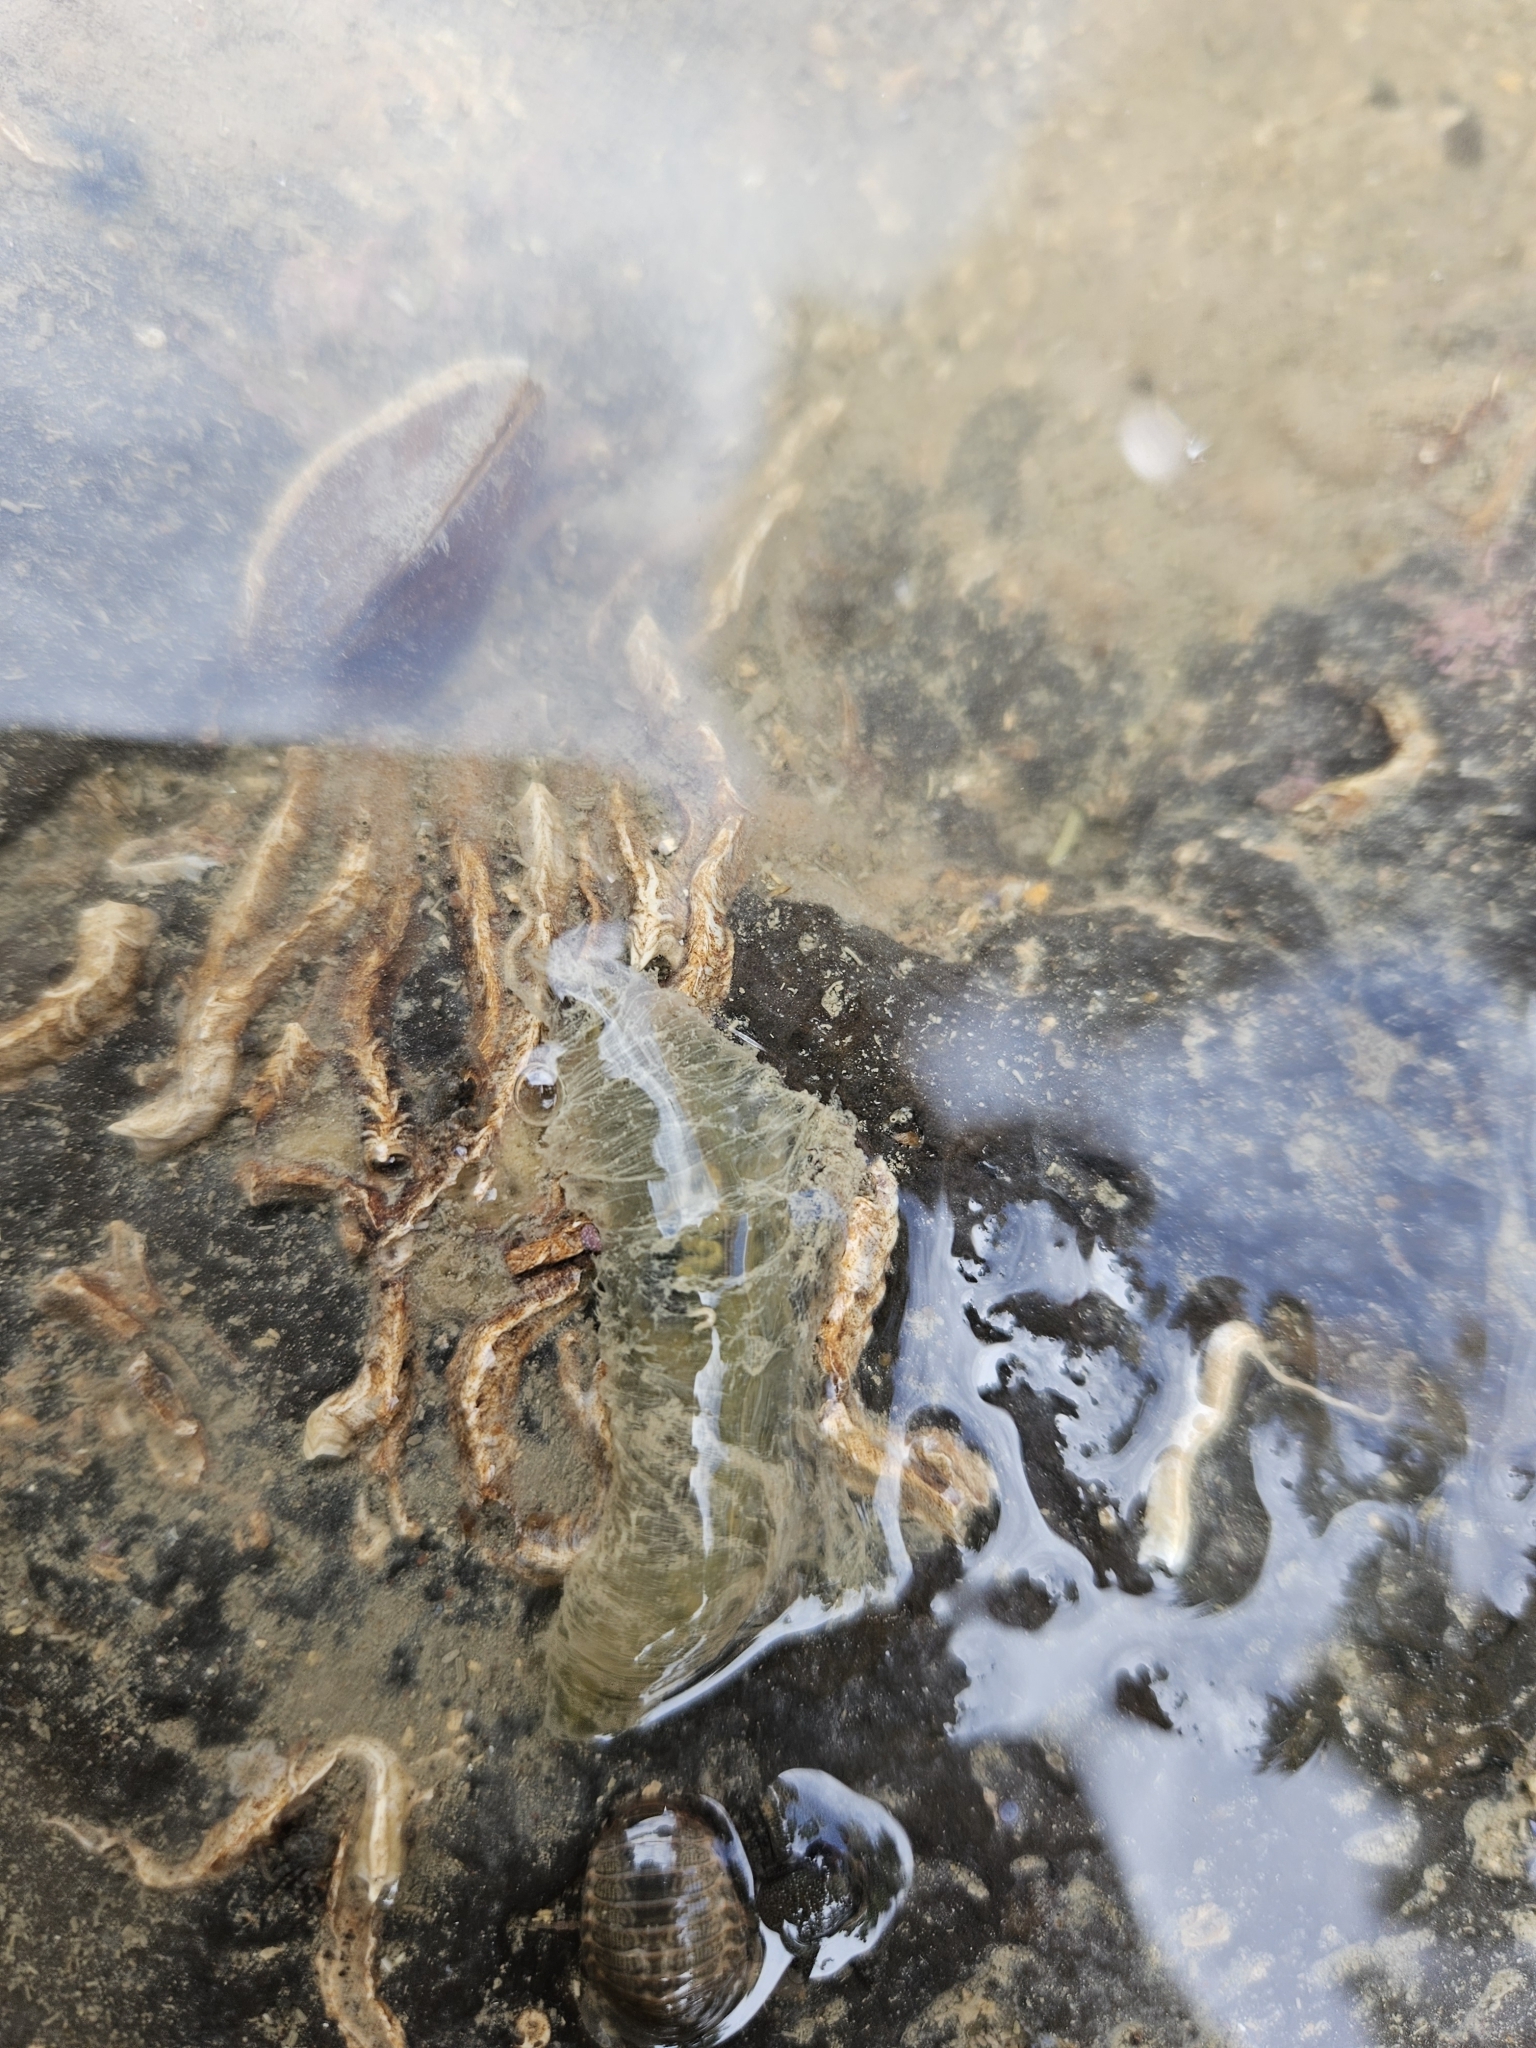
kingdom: Animalia
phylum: Annelida
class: Polychaeta
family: Flabelligeridae
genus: Flabelligera
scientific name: Flabelligera bicolor
